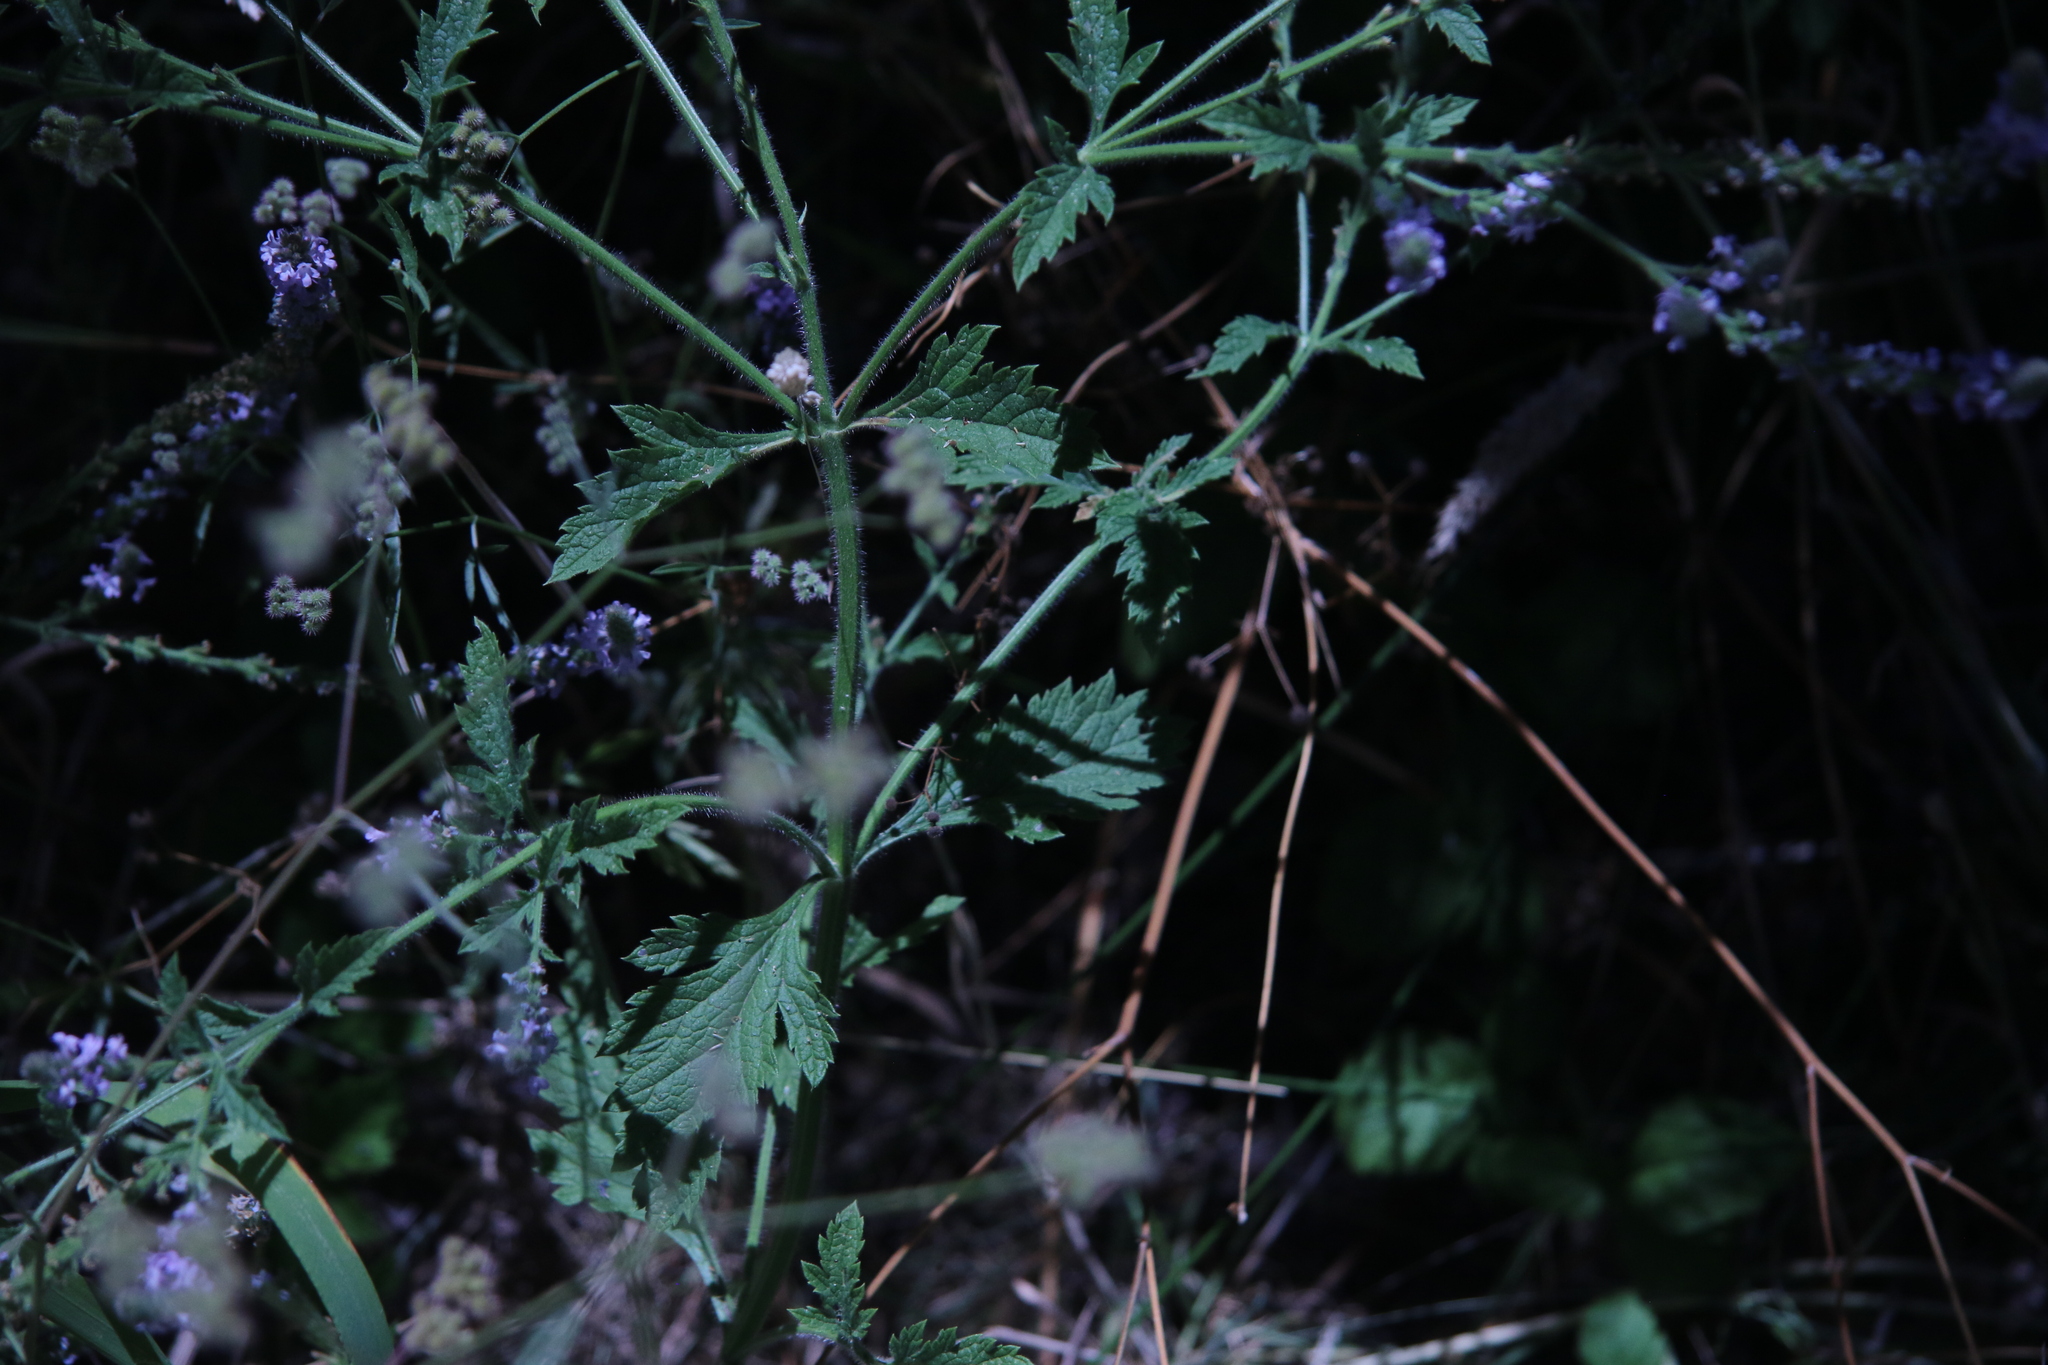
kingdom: Plantae
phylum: Tracheophyta
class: Magnoliopsida
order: Lamiales
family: Verbenaceae
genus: Verbena
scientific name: Verbena lasiostachys
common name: Vervain
